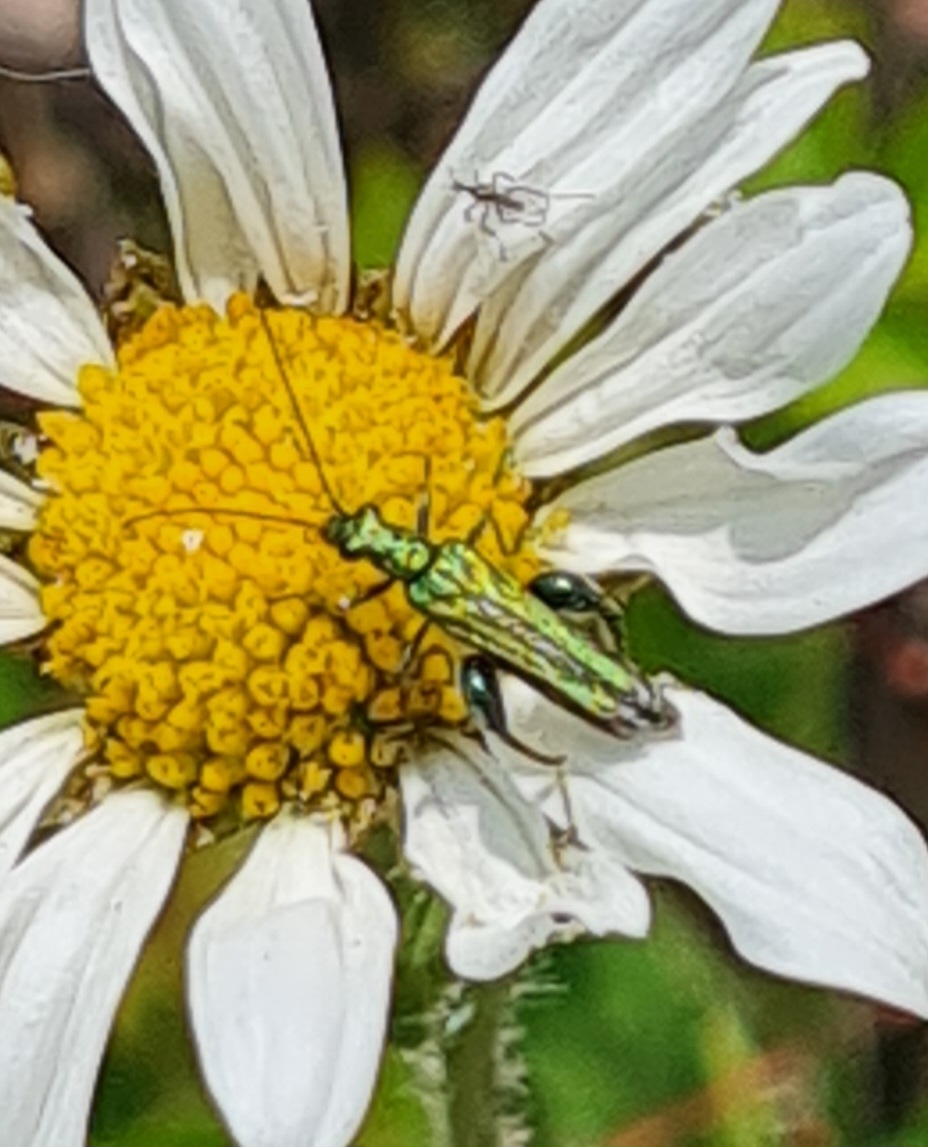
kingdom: Animalia
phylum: Arthropoda
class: Insecta
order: Coleoptera
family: Oedemeridae
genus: Oedemera
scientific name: Oedemera nobilis
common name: Swollen-thighed beetle
